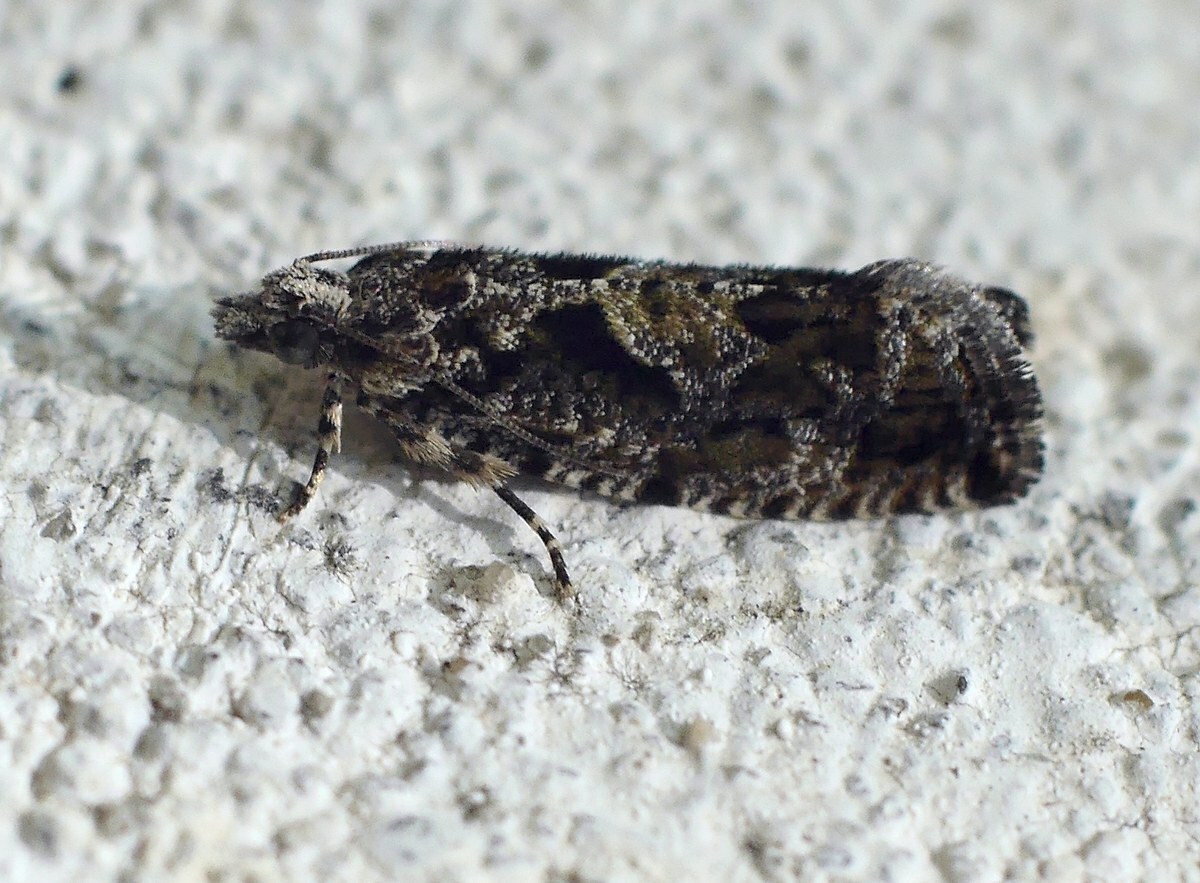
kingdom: Animalia
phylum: Arthropoda
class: Insecta
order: Lepidoptera
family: Tortricidae
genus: Zeiraphera
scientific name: Zeiraphera isertana
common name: Cock's-head bell
